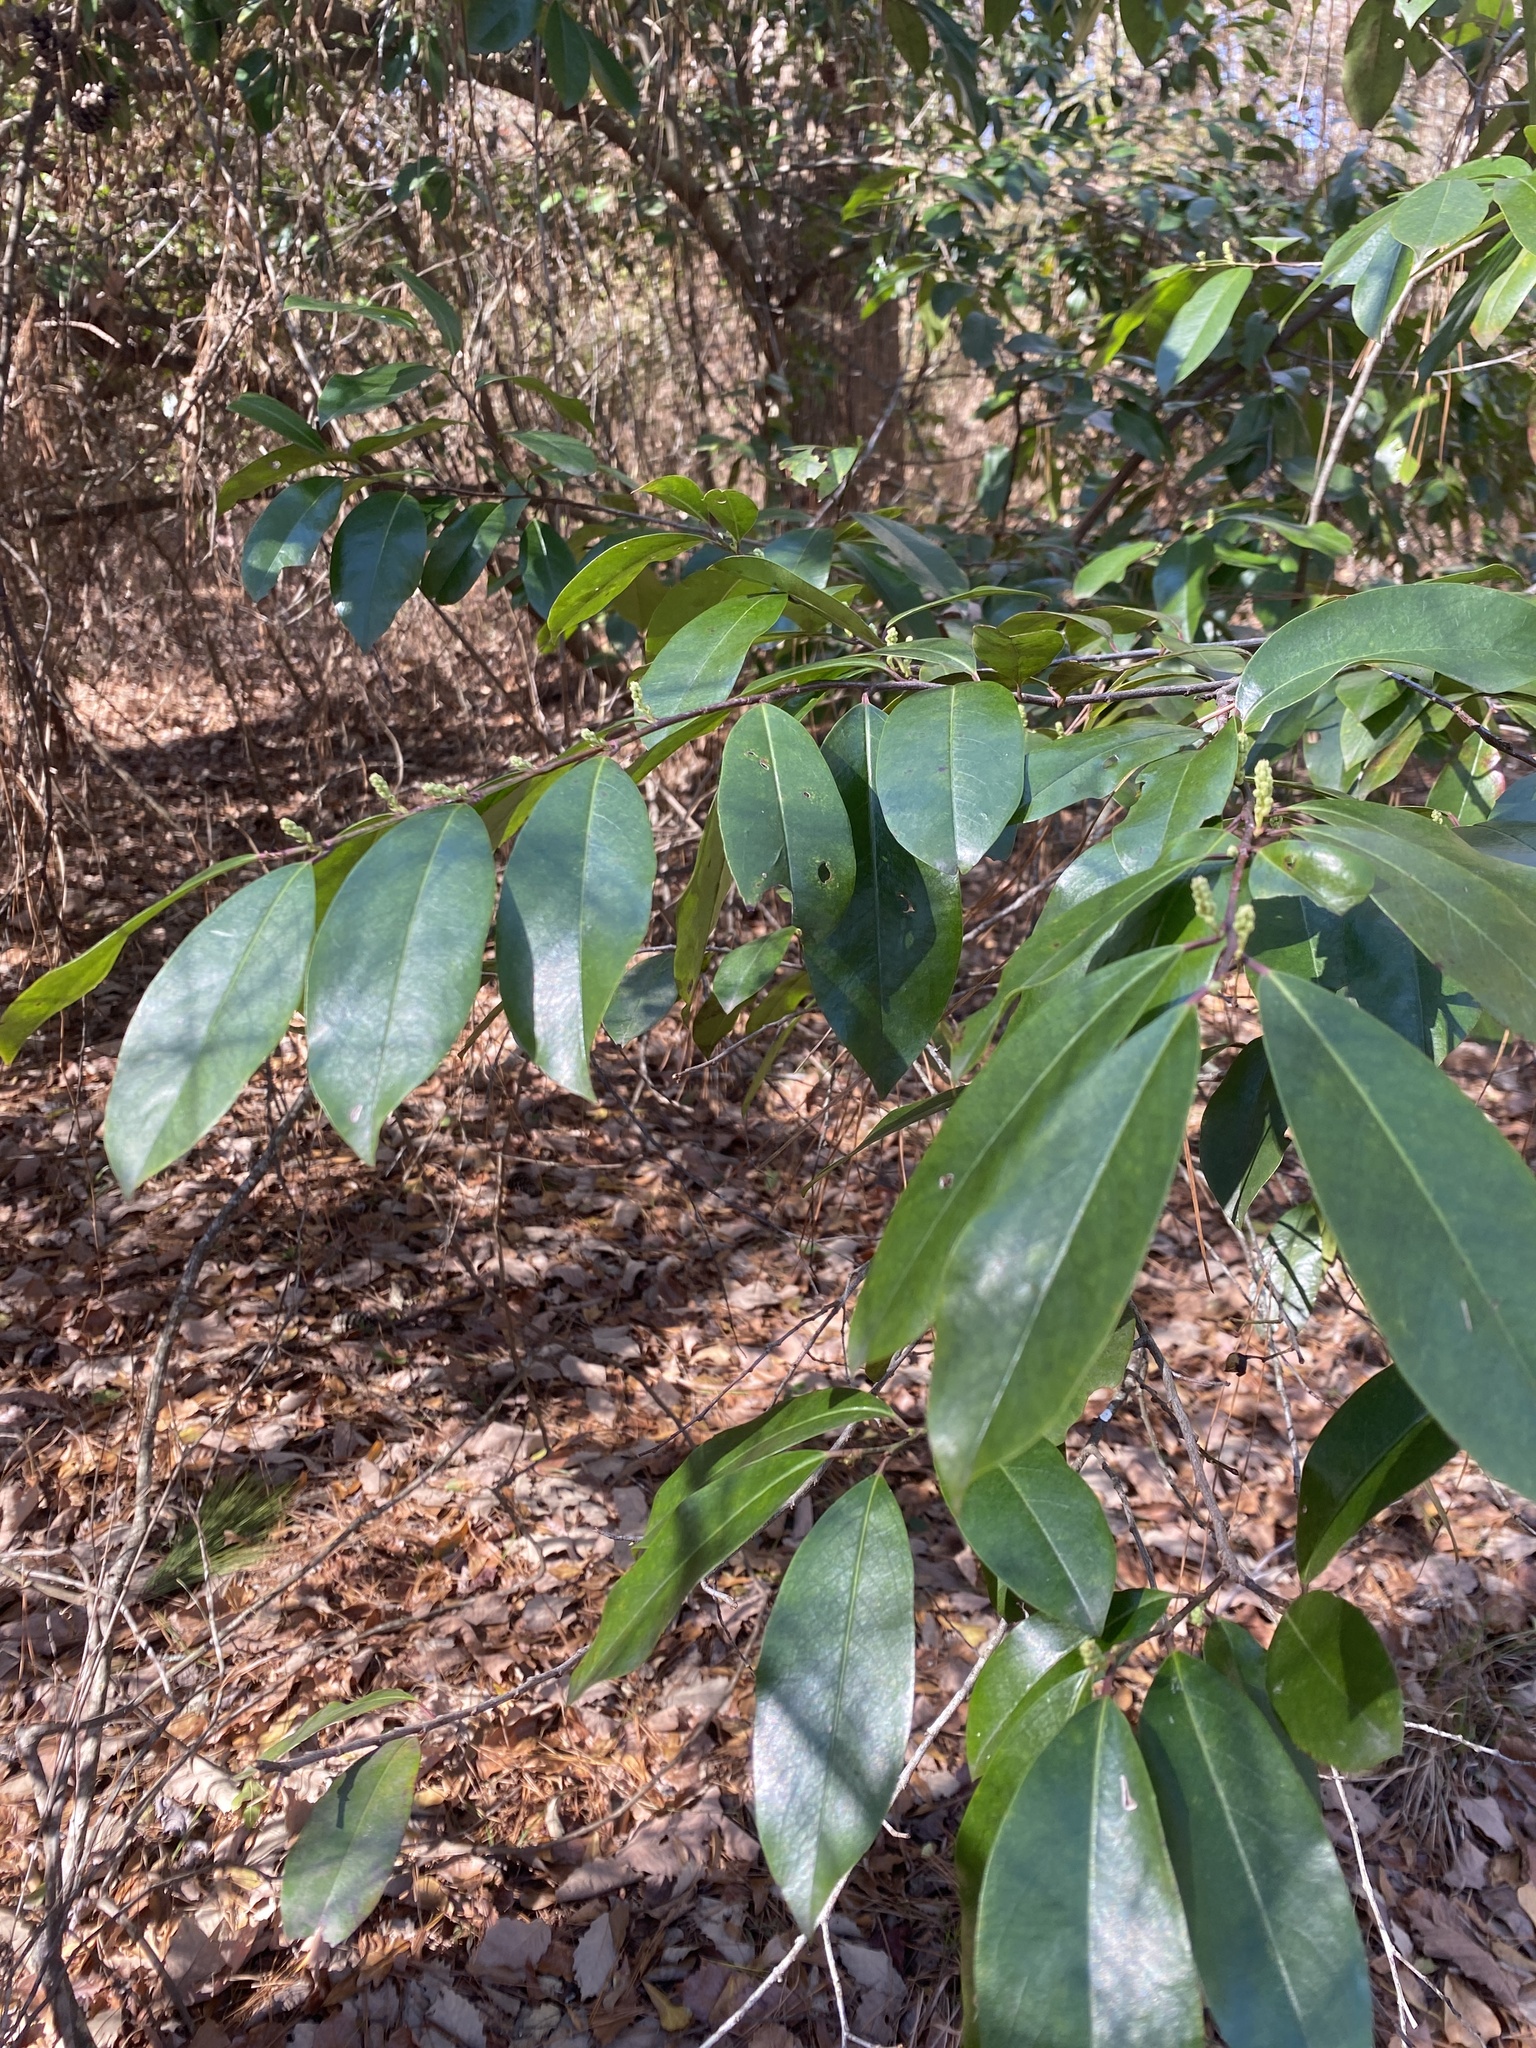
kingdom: Plantae
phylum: Tracheophyta
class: Magnoliopsida
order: Rosales
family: Rosaceae
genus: Prunus
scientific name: Prunus caroliniana
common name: Carolina laurel cherry
